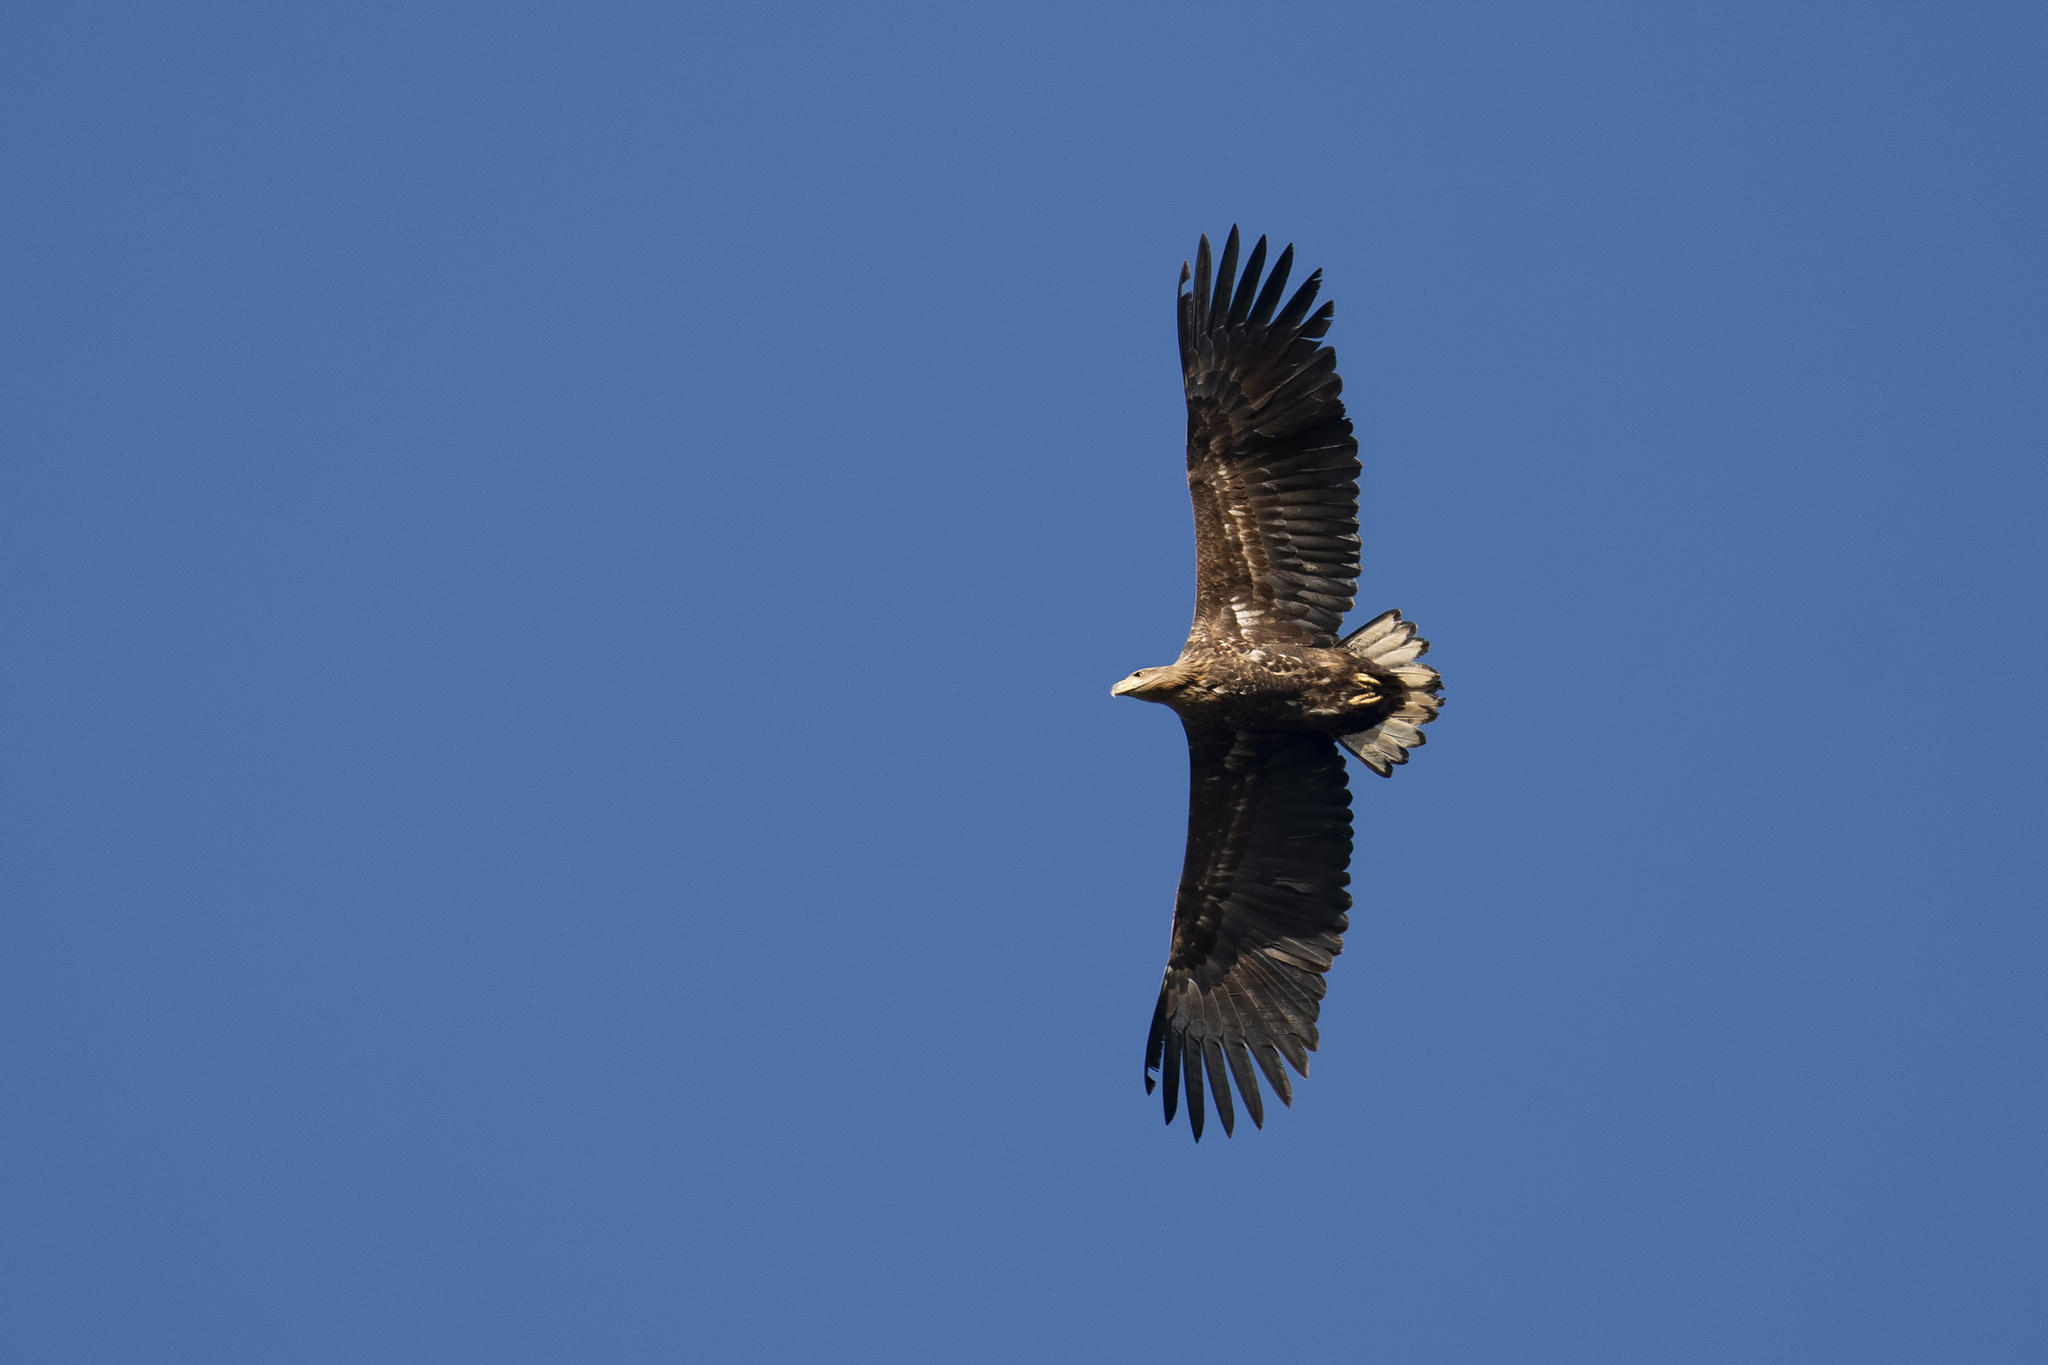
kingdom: Animalia
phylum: Chordata
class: Aves
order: Accipitriformes
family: Accipitridae
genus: Haliaeetus
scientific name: Haliaeetus albicilla
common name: White-tailed eagle
